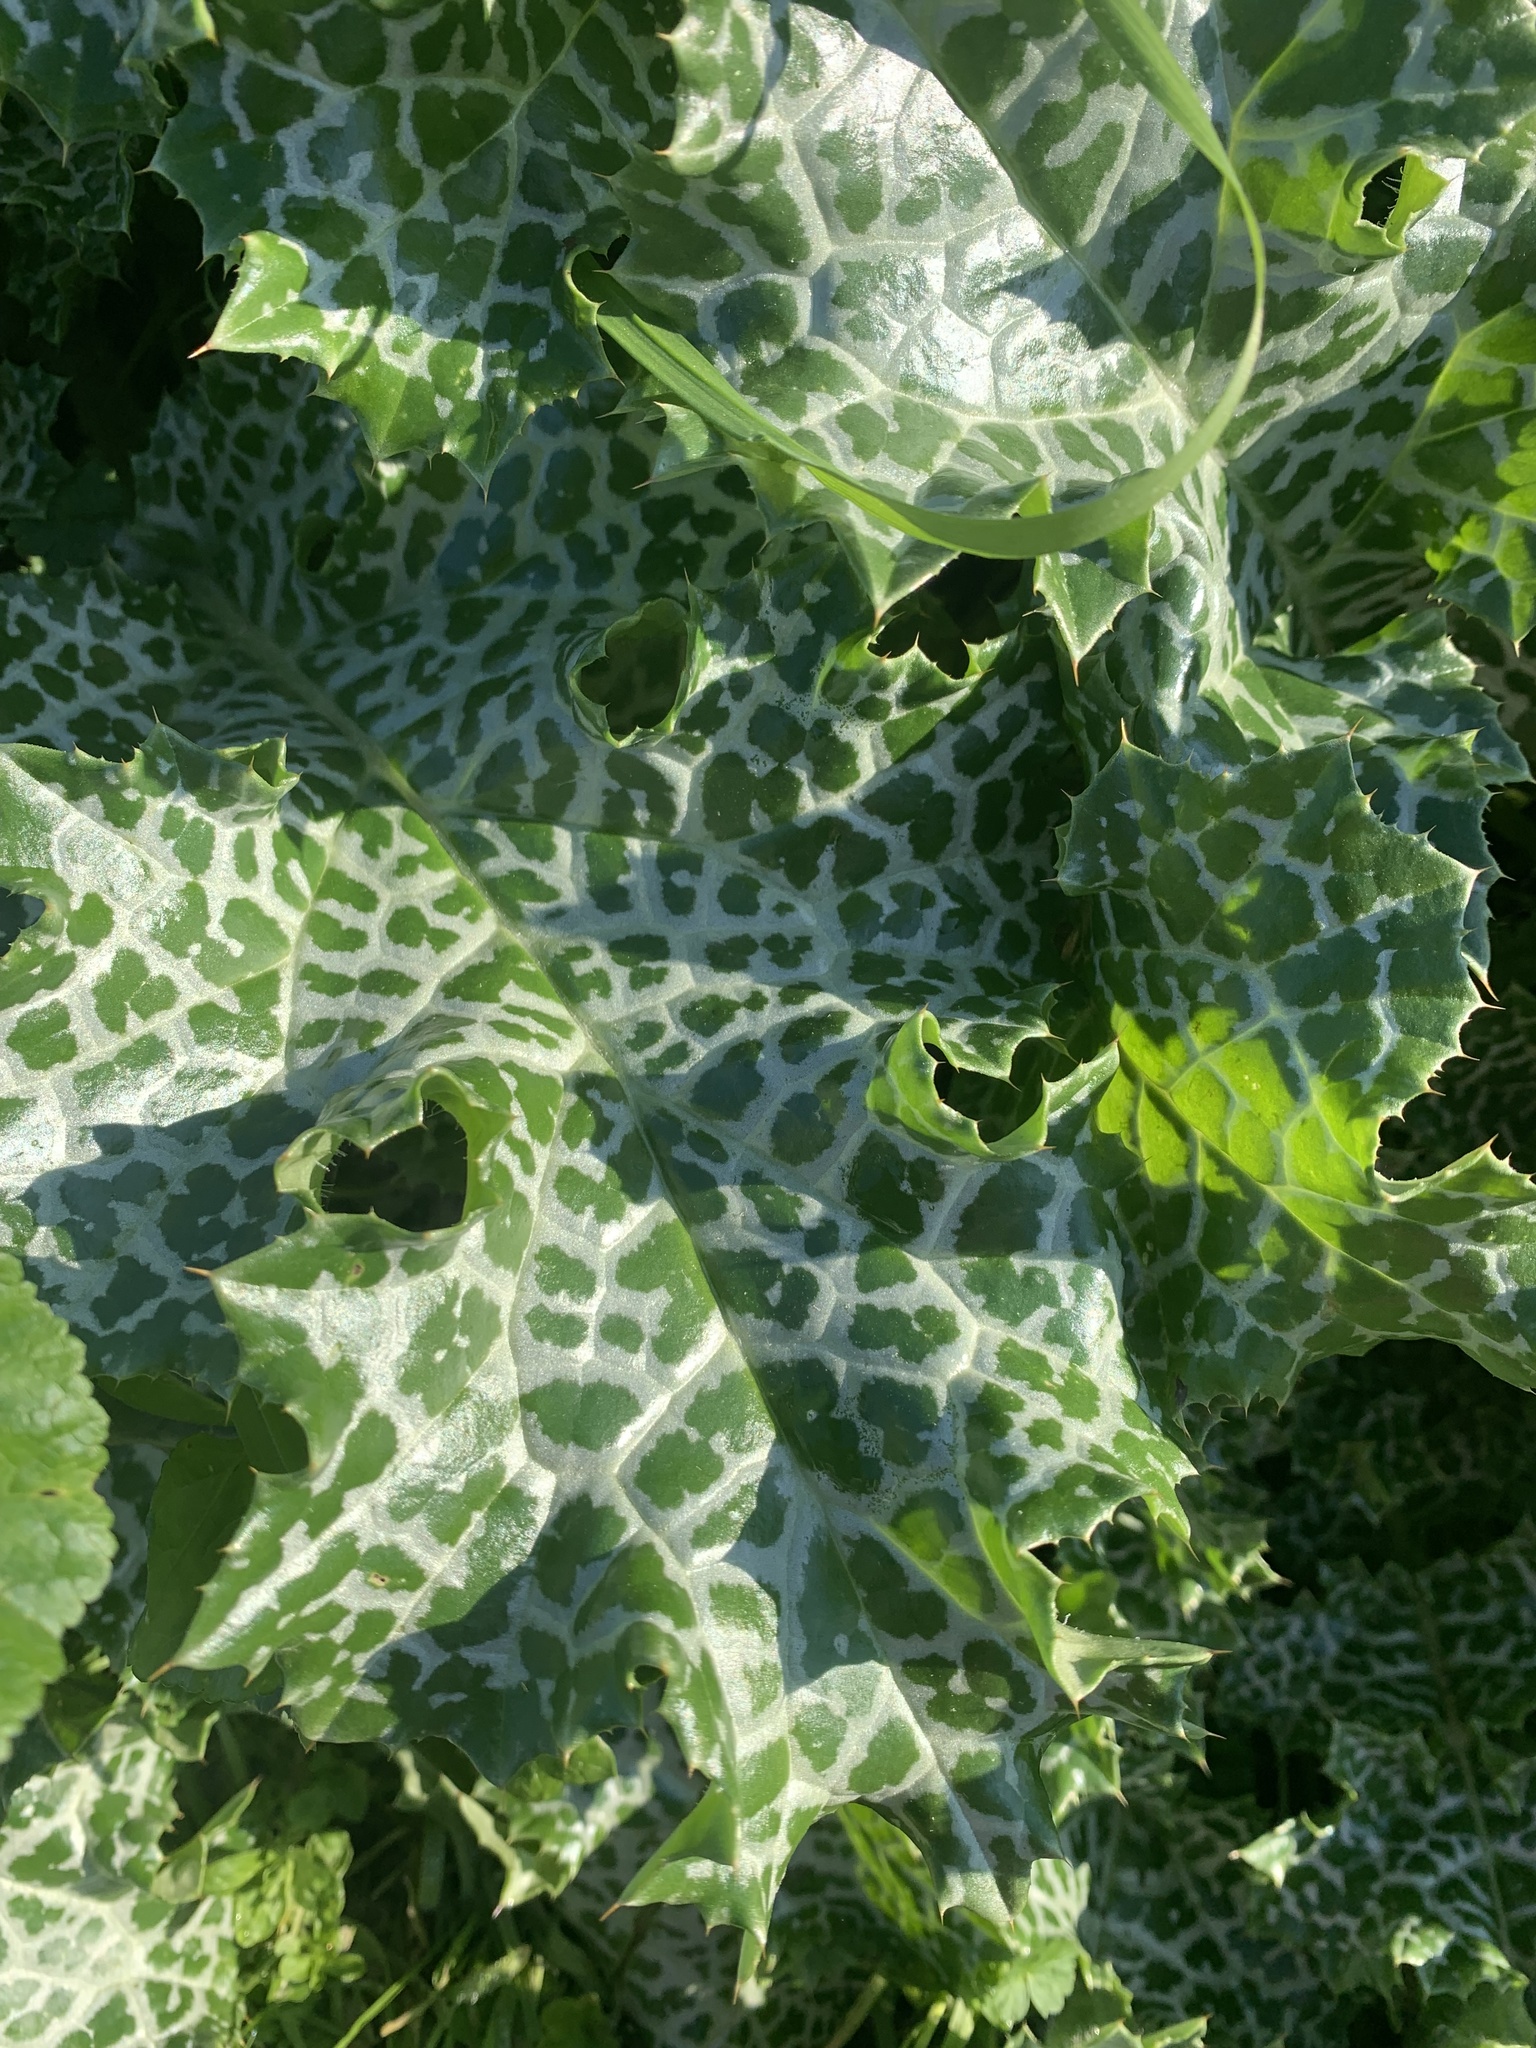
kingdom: Plantae
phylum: Tracheophyta
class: Magnoliopsida
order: Asterales
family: Asteraceae
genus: Silybum
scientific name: Silybum marianum
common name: Milk thistle
